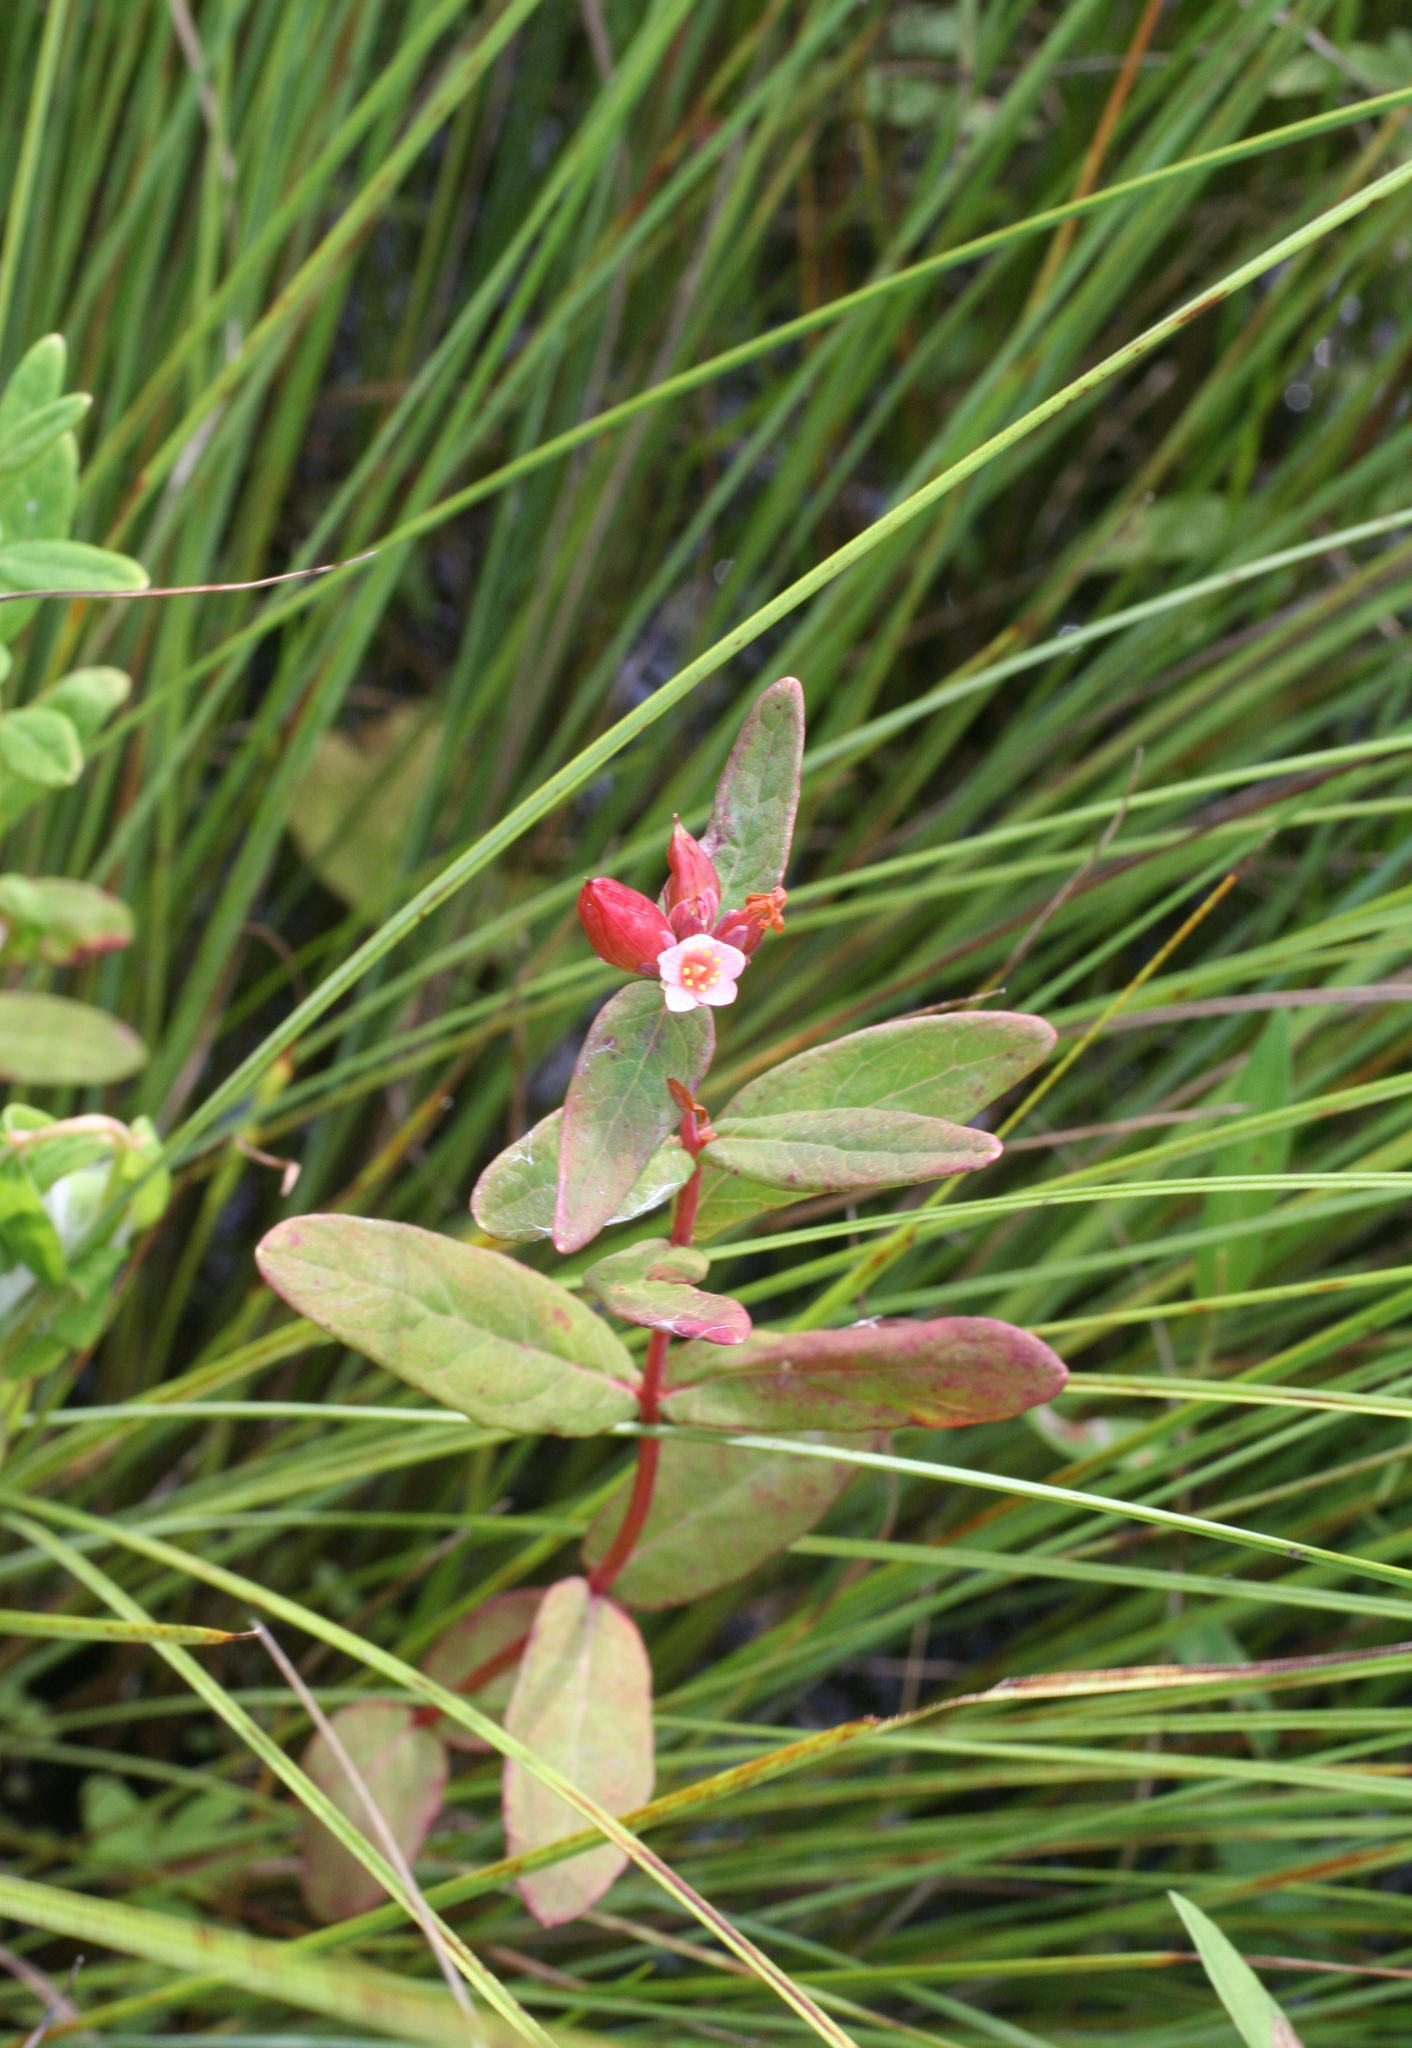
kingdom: Plantae
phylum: Tracheophyta
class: Magnoliopsida
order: Malpighiales
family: Hypericaceae
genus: Triadenum
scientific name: Triadenum japonicum
